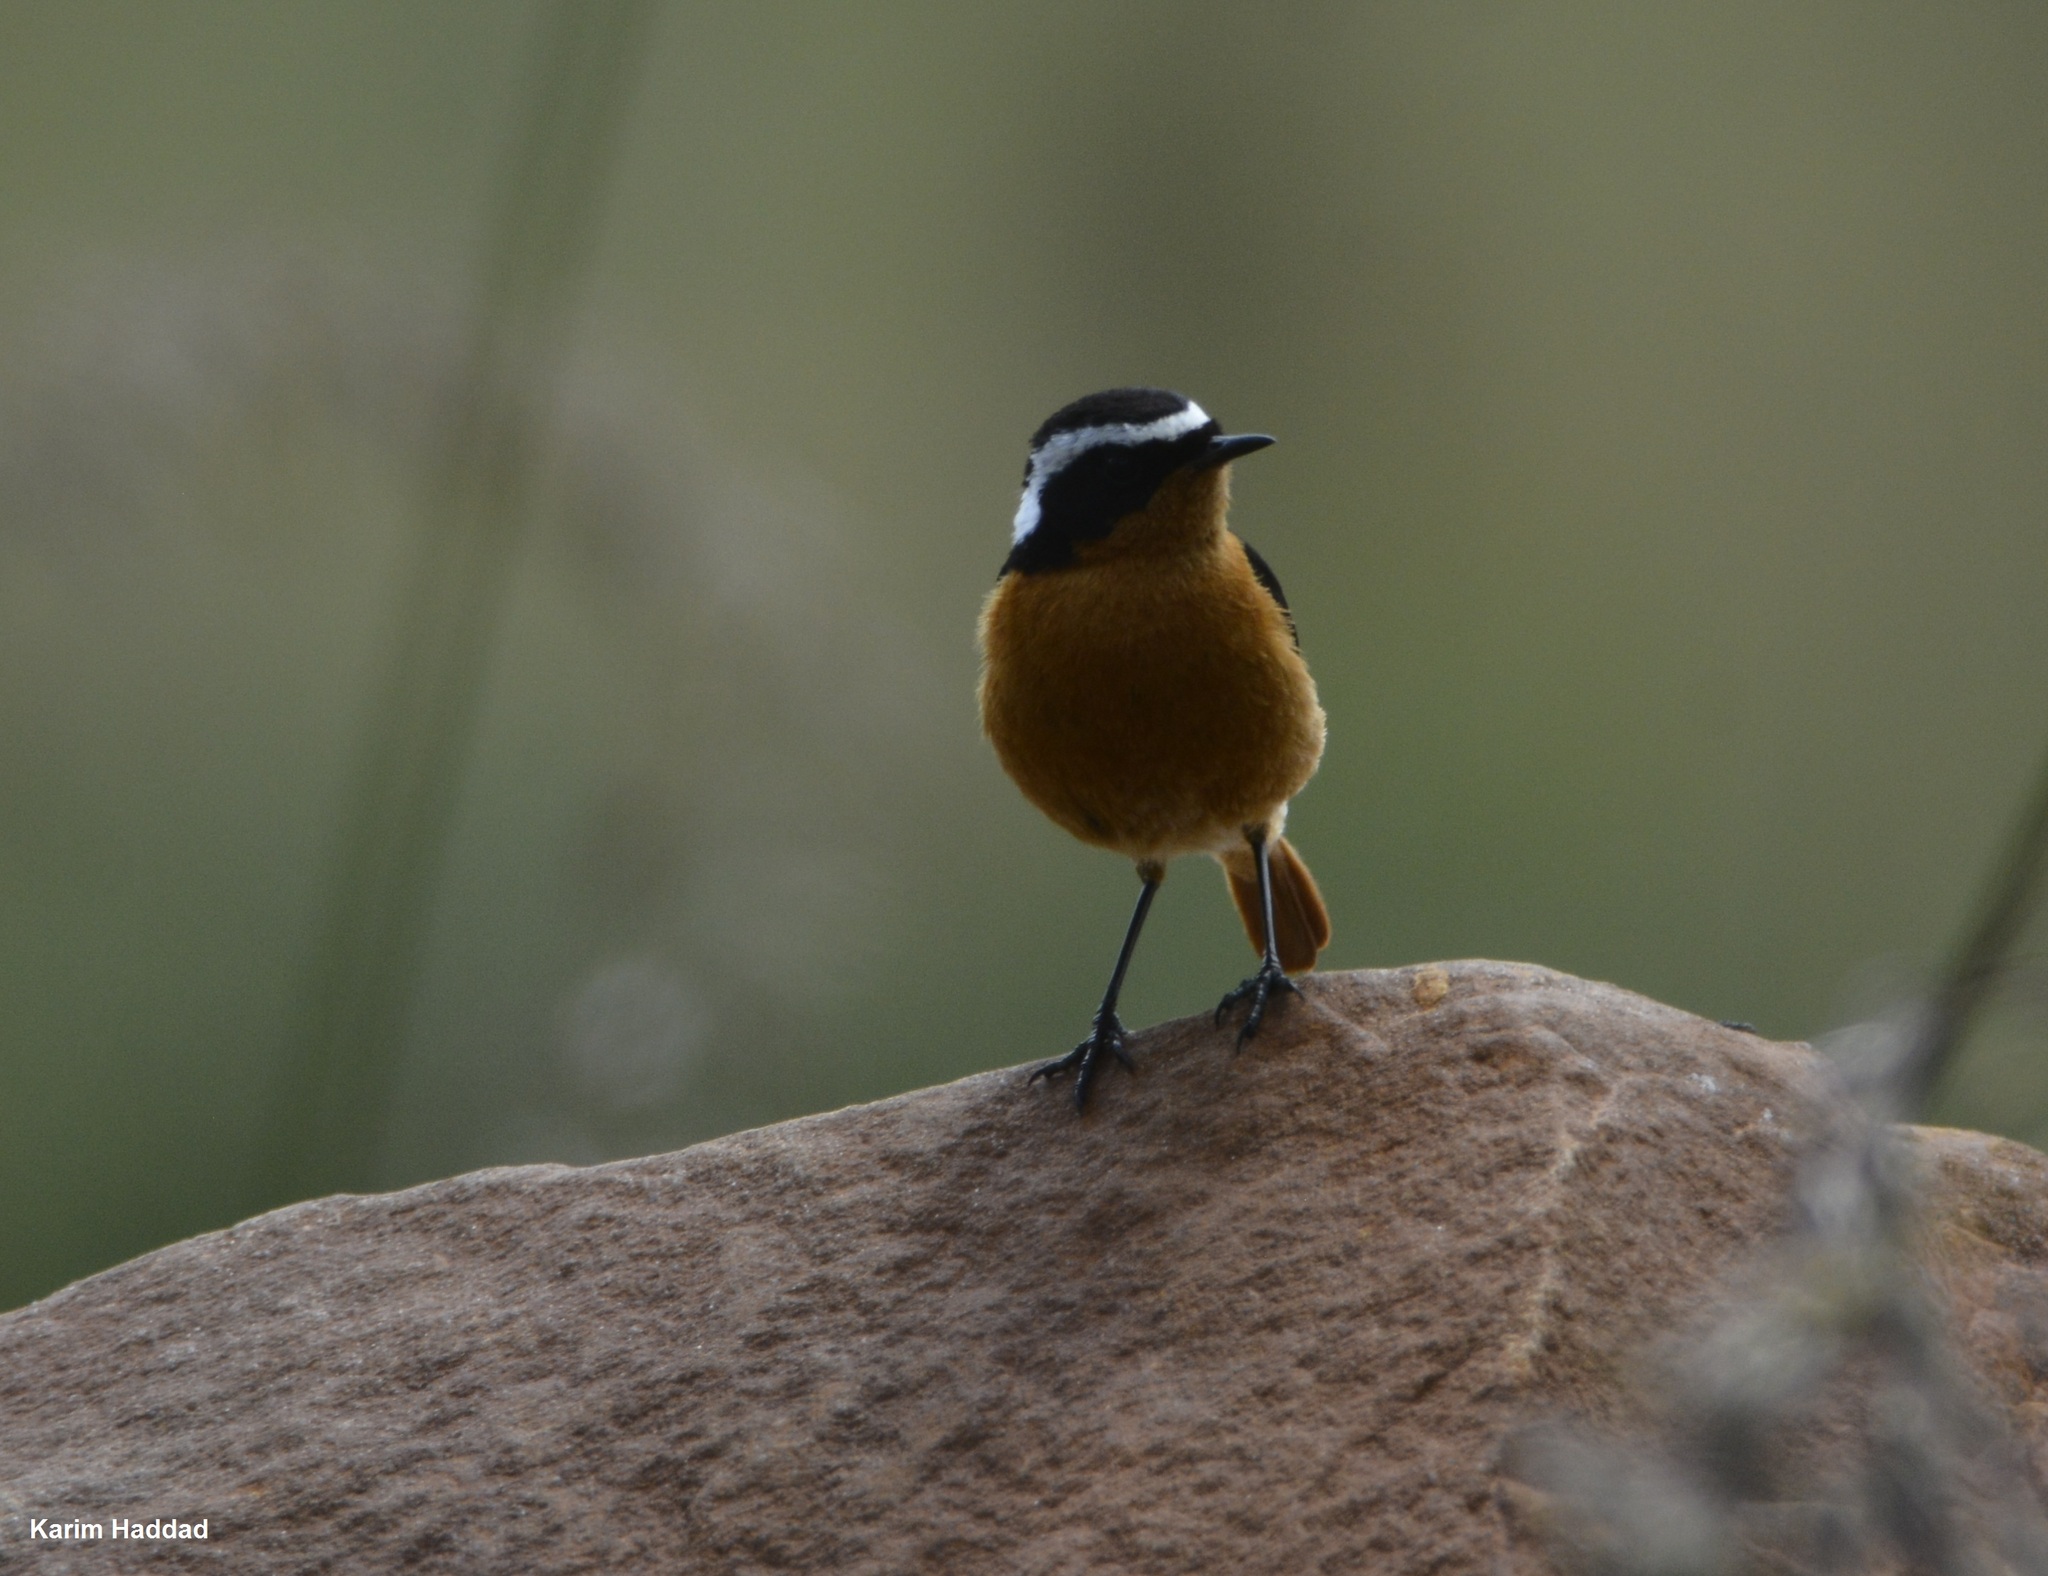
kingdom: Animalia
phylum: Chordata
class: Aves
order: Passeriformes
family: Muscicapidae
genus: Phoenicurus
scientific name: Phoenicurus moussieri
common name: Moussier's redstart
